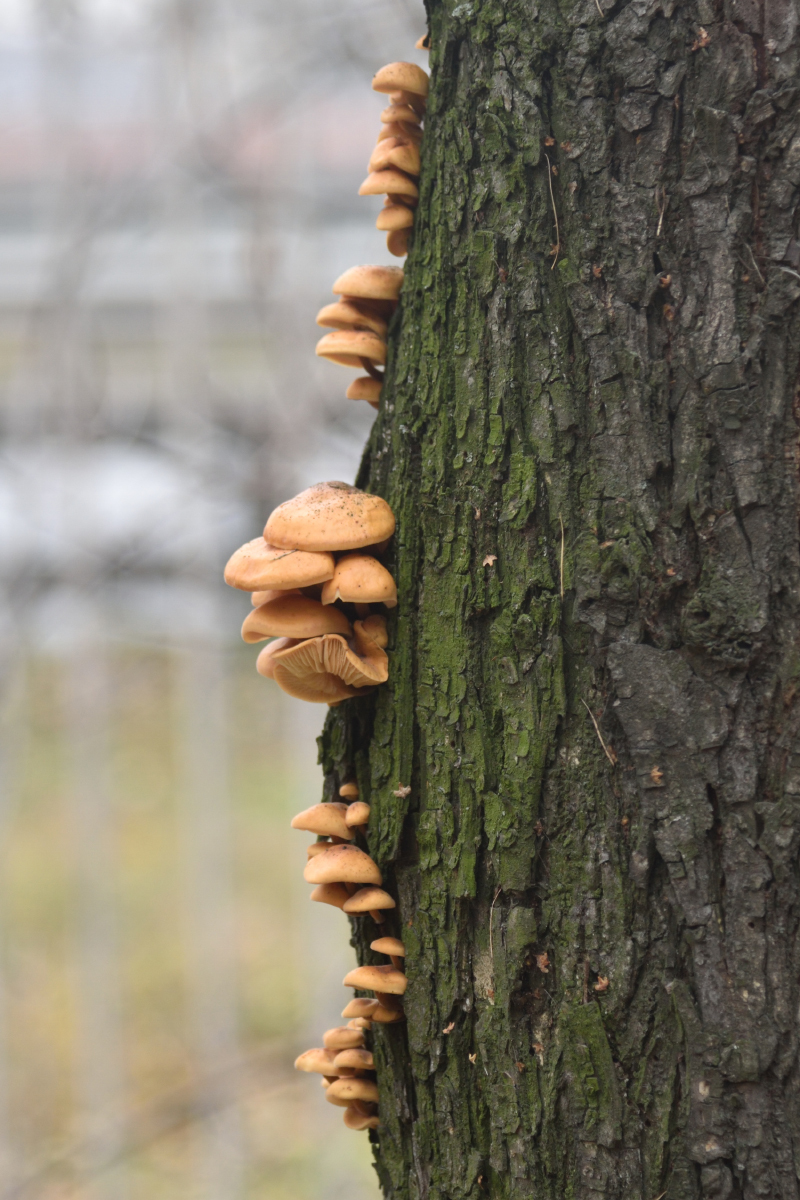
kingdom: Fungi
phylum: Basidiomycota
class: Agaricomycetes
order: Agaricales
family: Physalacriaceae
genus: Flammulina
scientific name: Flammulina
